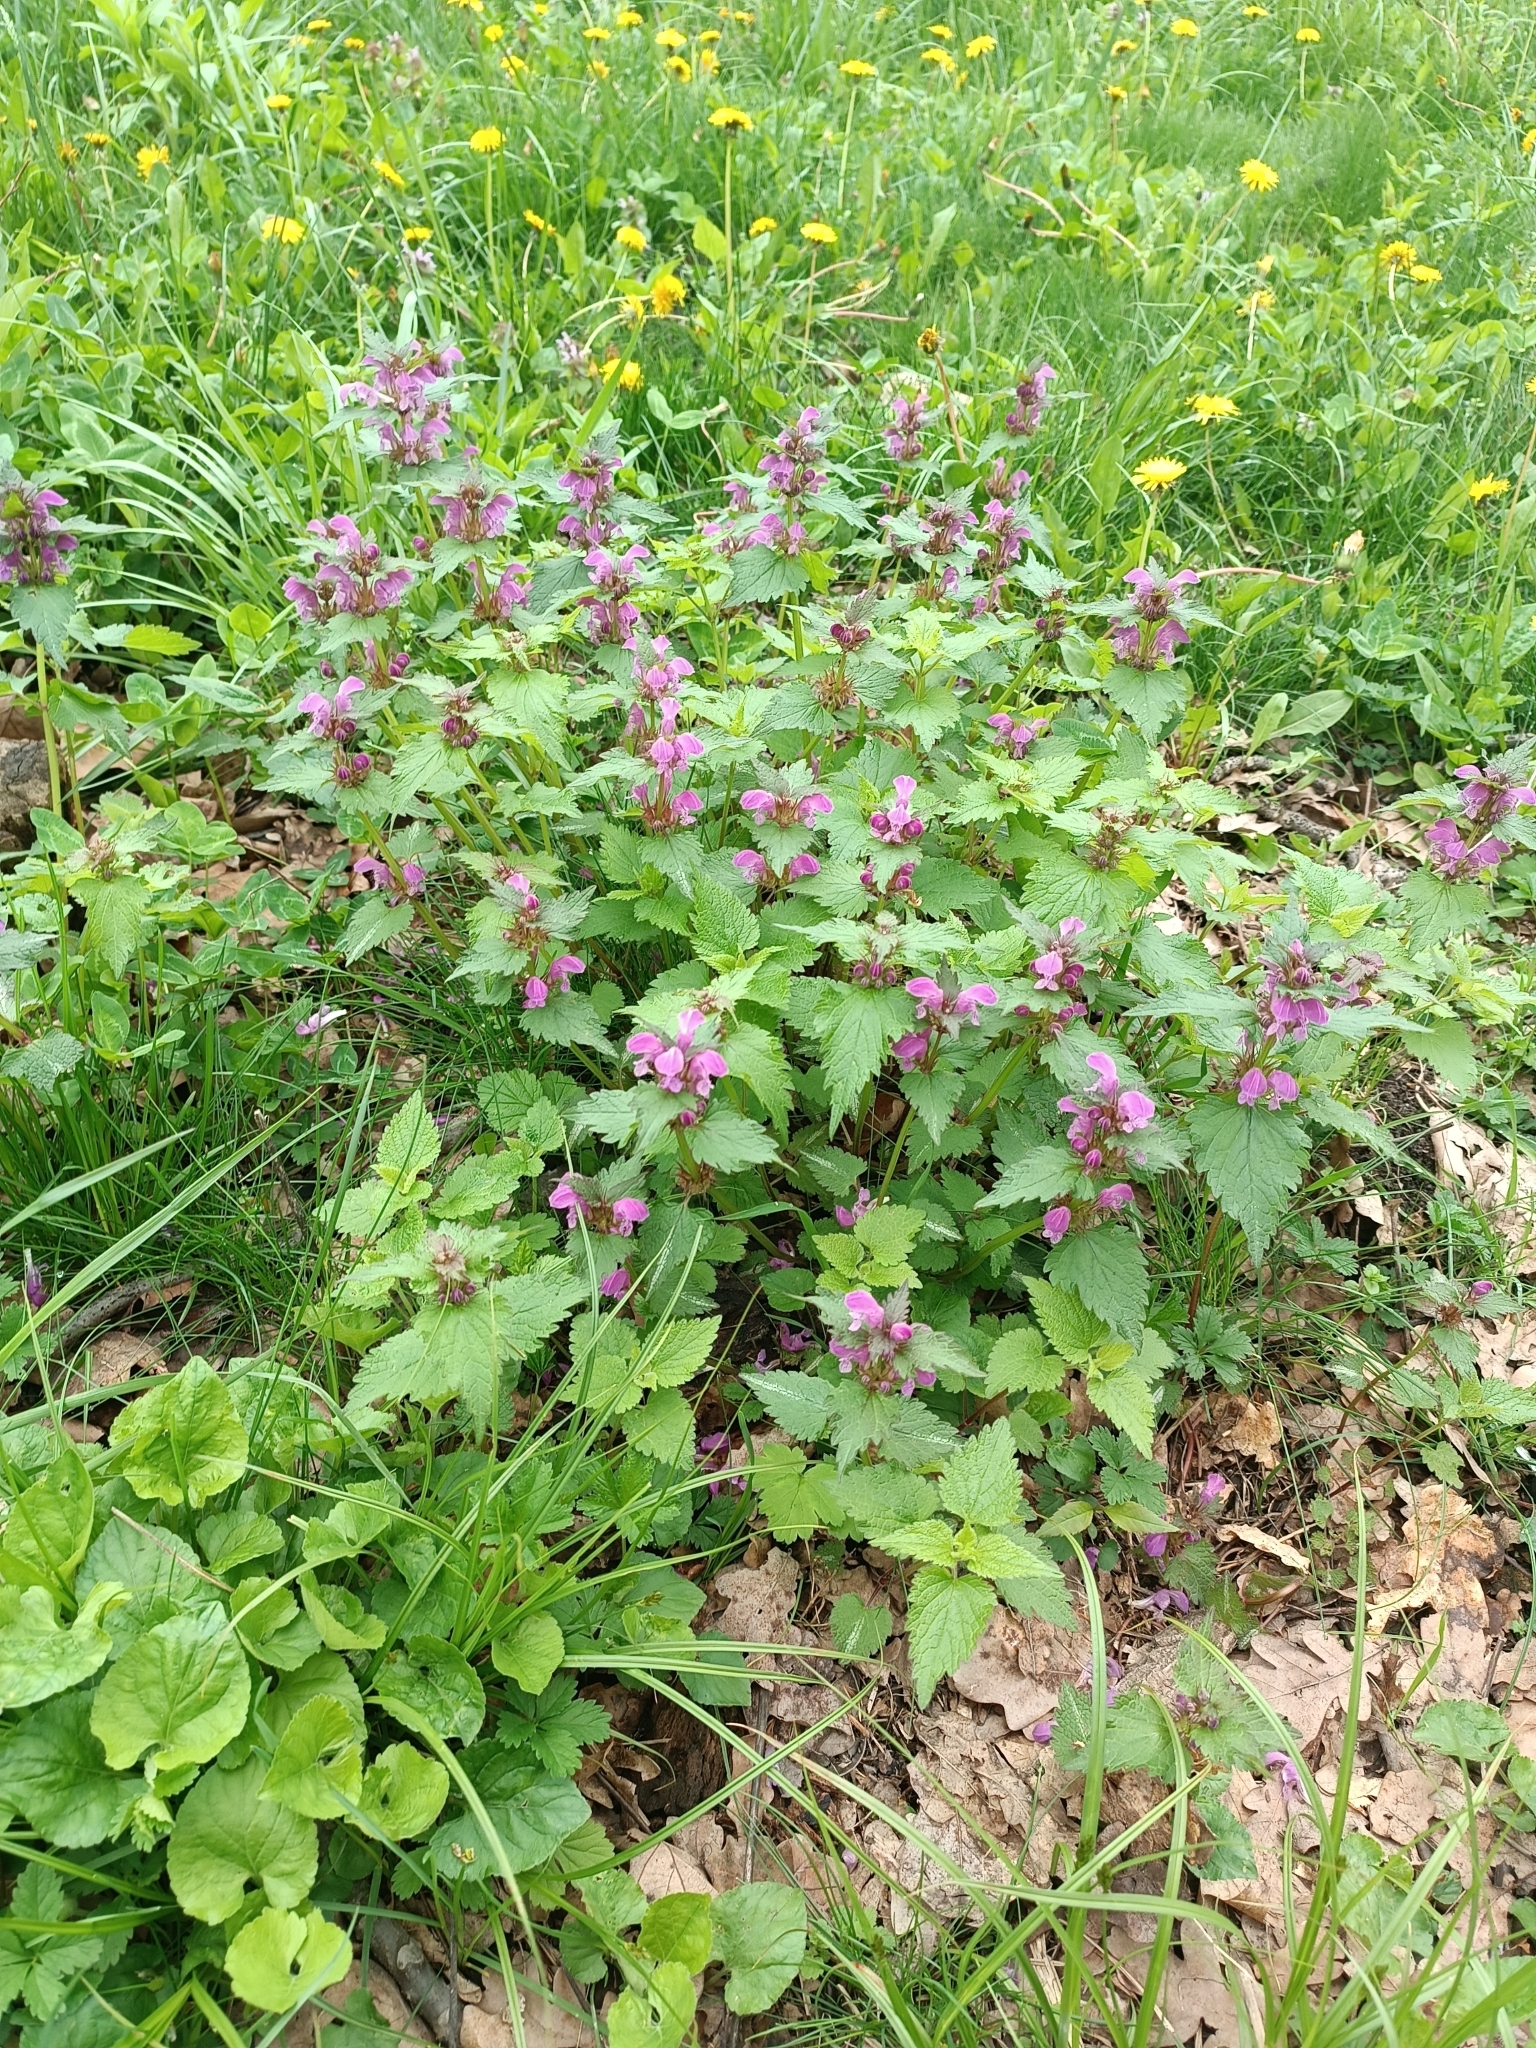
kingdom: Plantae
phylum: Tracheophyta
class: Magnoliopsida
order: Lamiales
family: Lamiaceae
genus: Lamium
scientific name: Lamium maculatum
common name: Spotted dead-nettle
